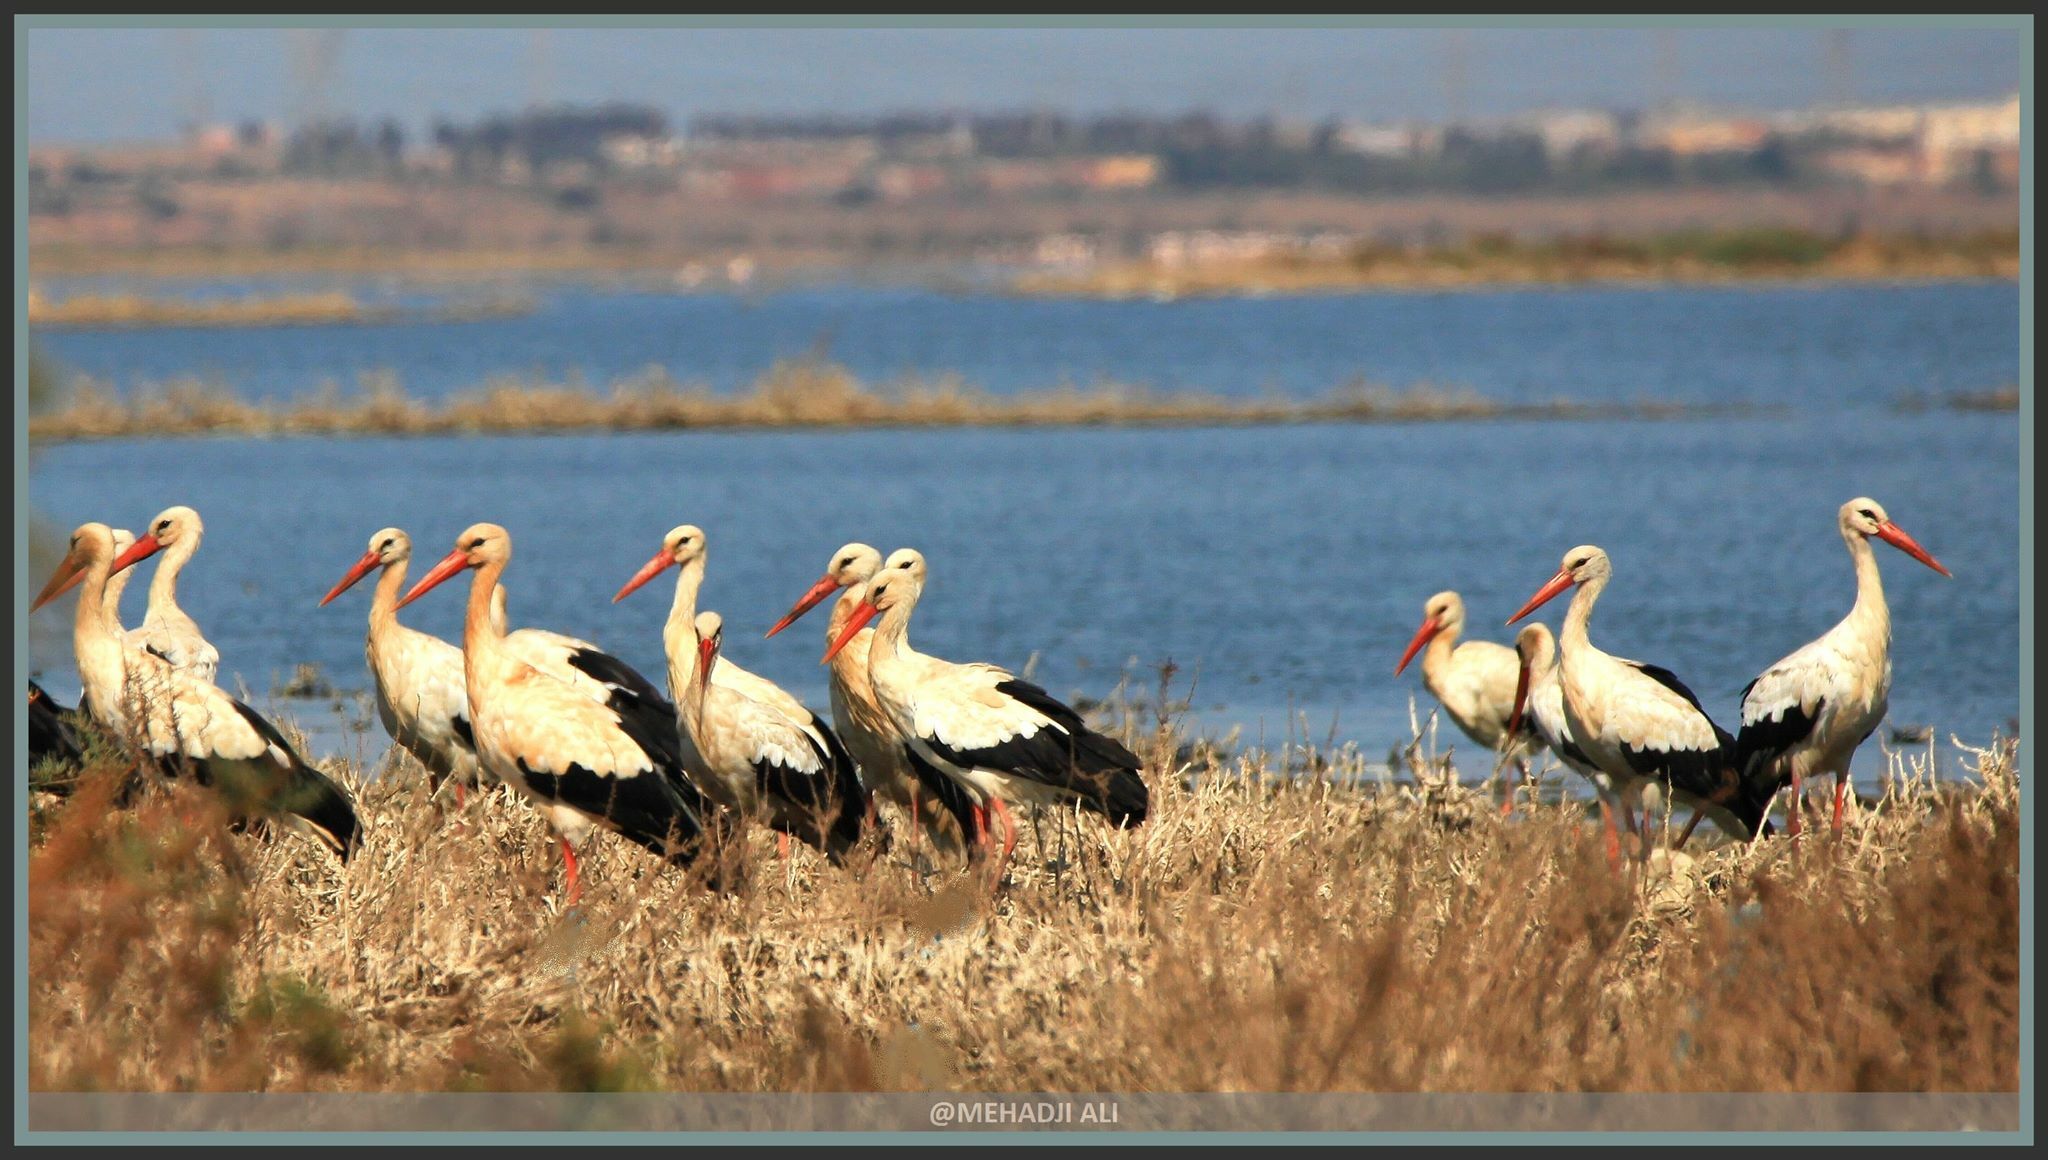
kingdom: Animalia
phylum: Chordata
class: Aves
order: Ciconiiformes
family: Ciconiidae
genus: Ciconia
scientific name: Ciconia ciconia
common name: White stork
